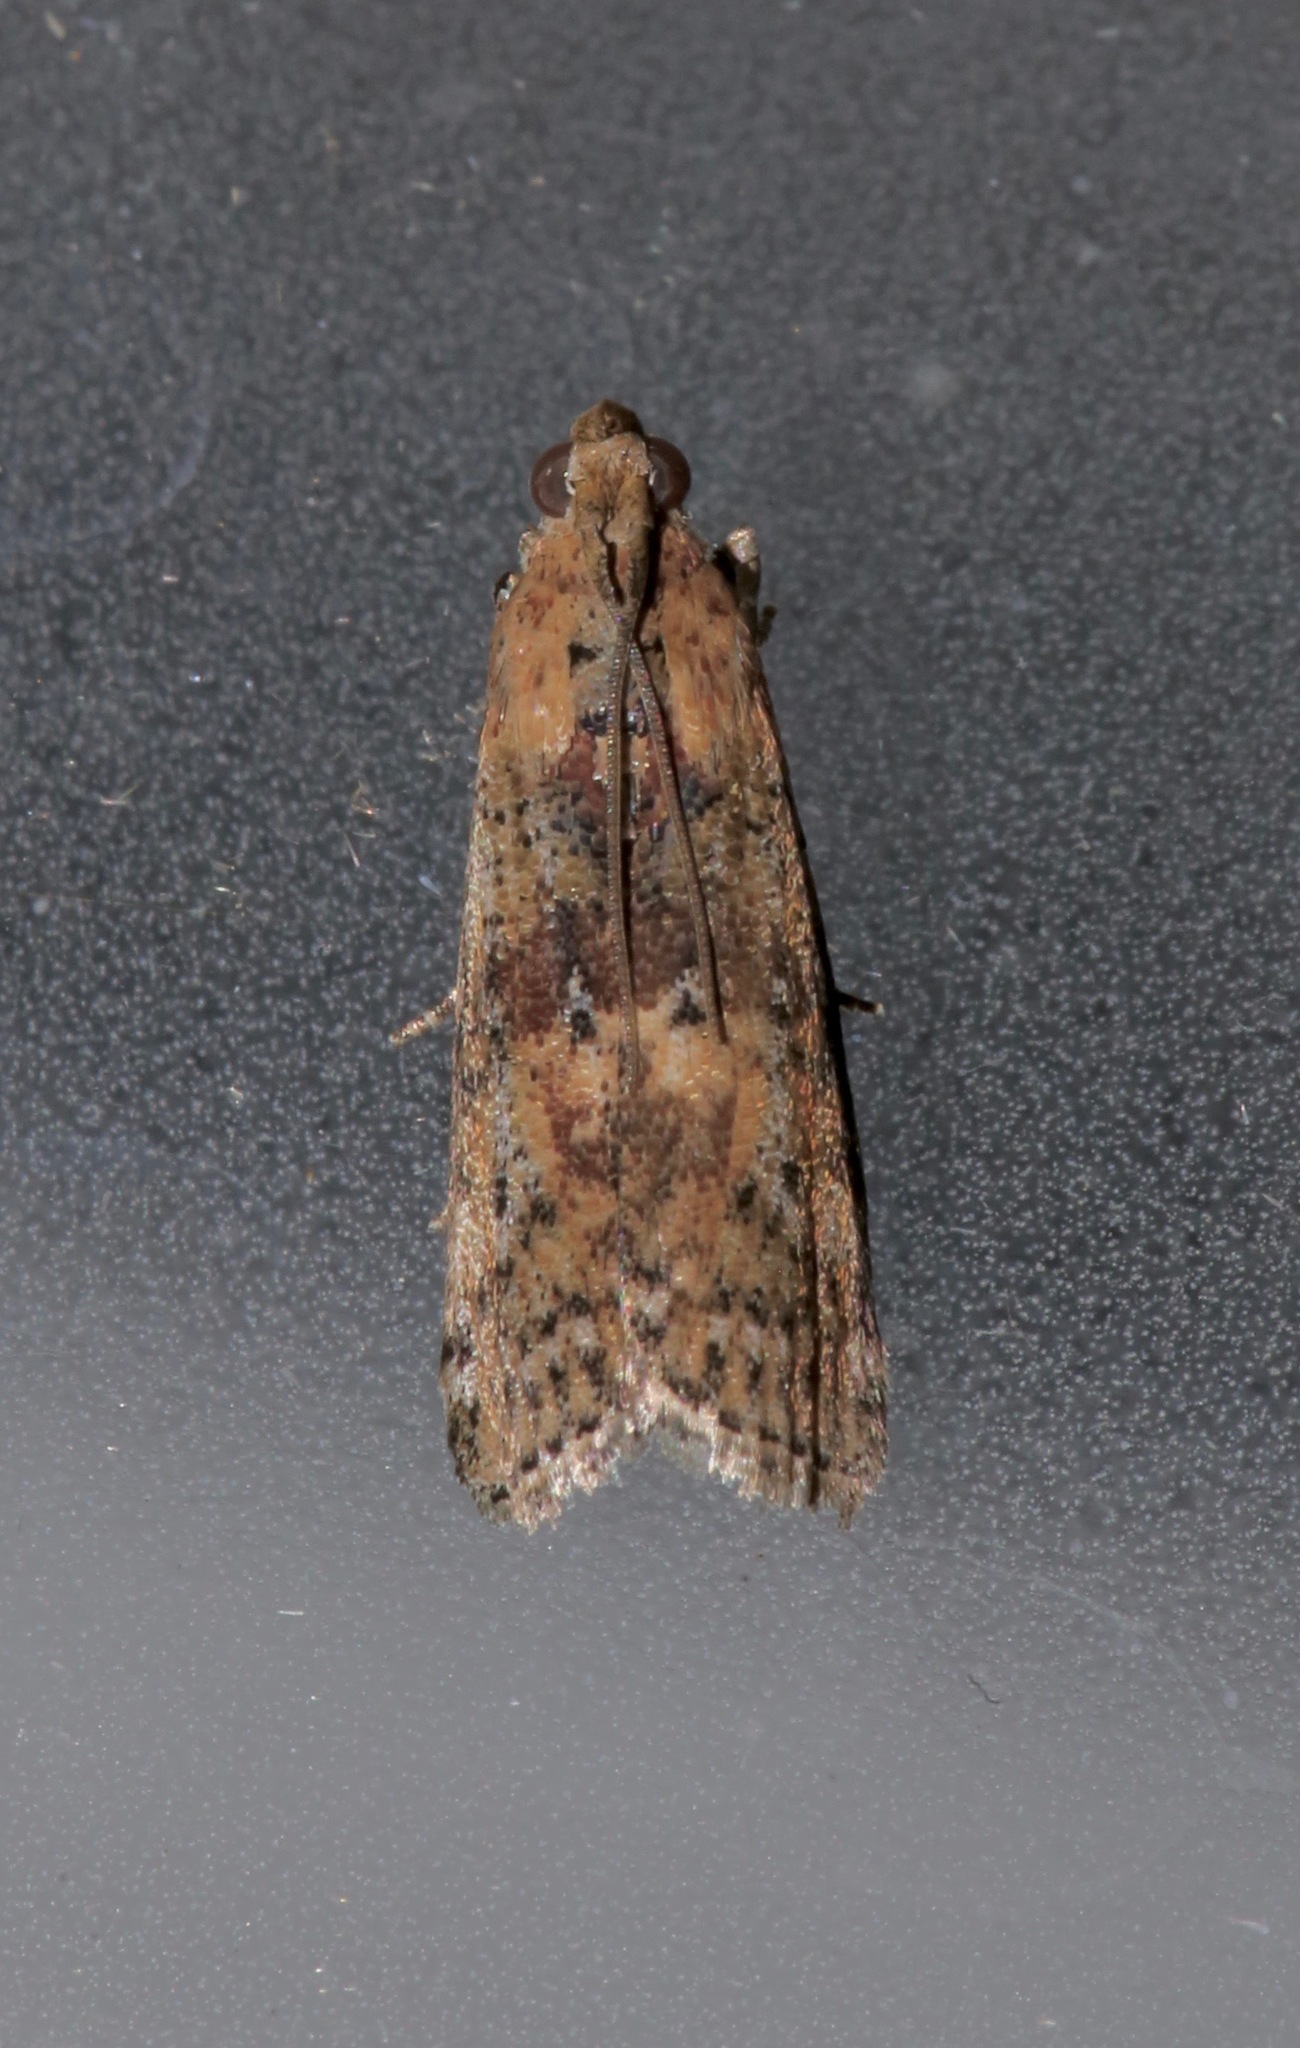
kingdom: Animalia
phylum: Arthropoda
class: Insecta
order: Lepidoptera
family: Pyralidae
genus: Sciota
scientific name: Sciota celtidella
